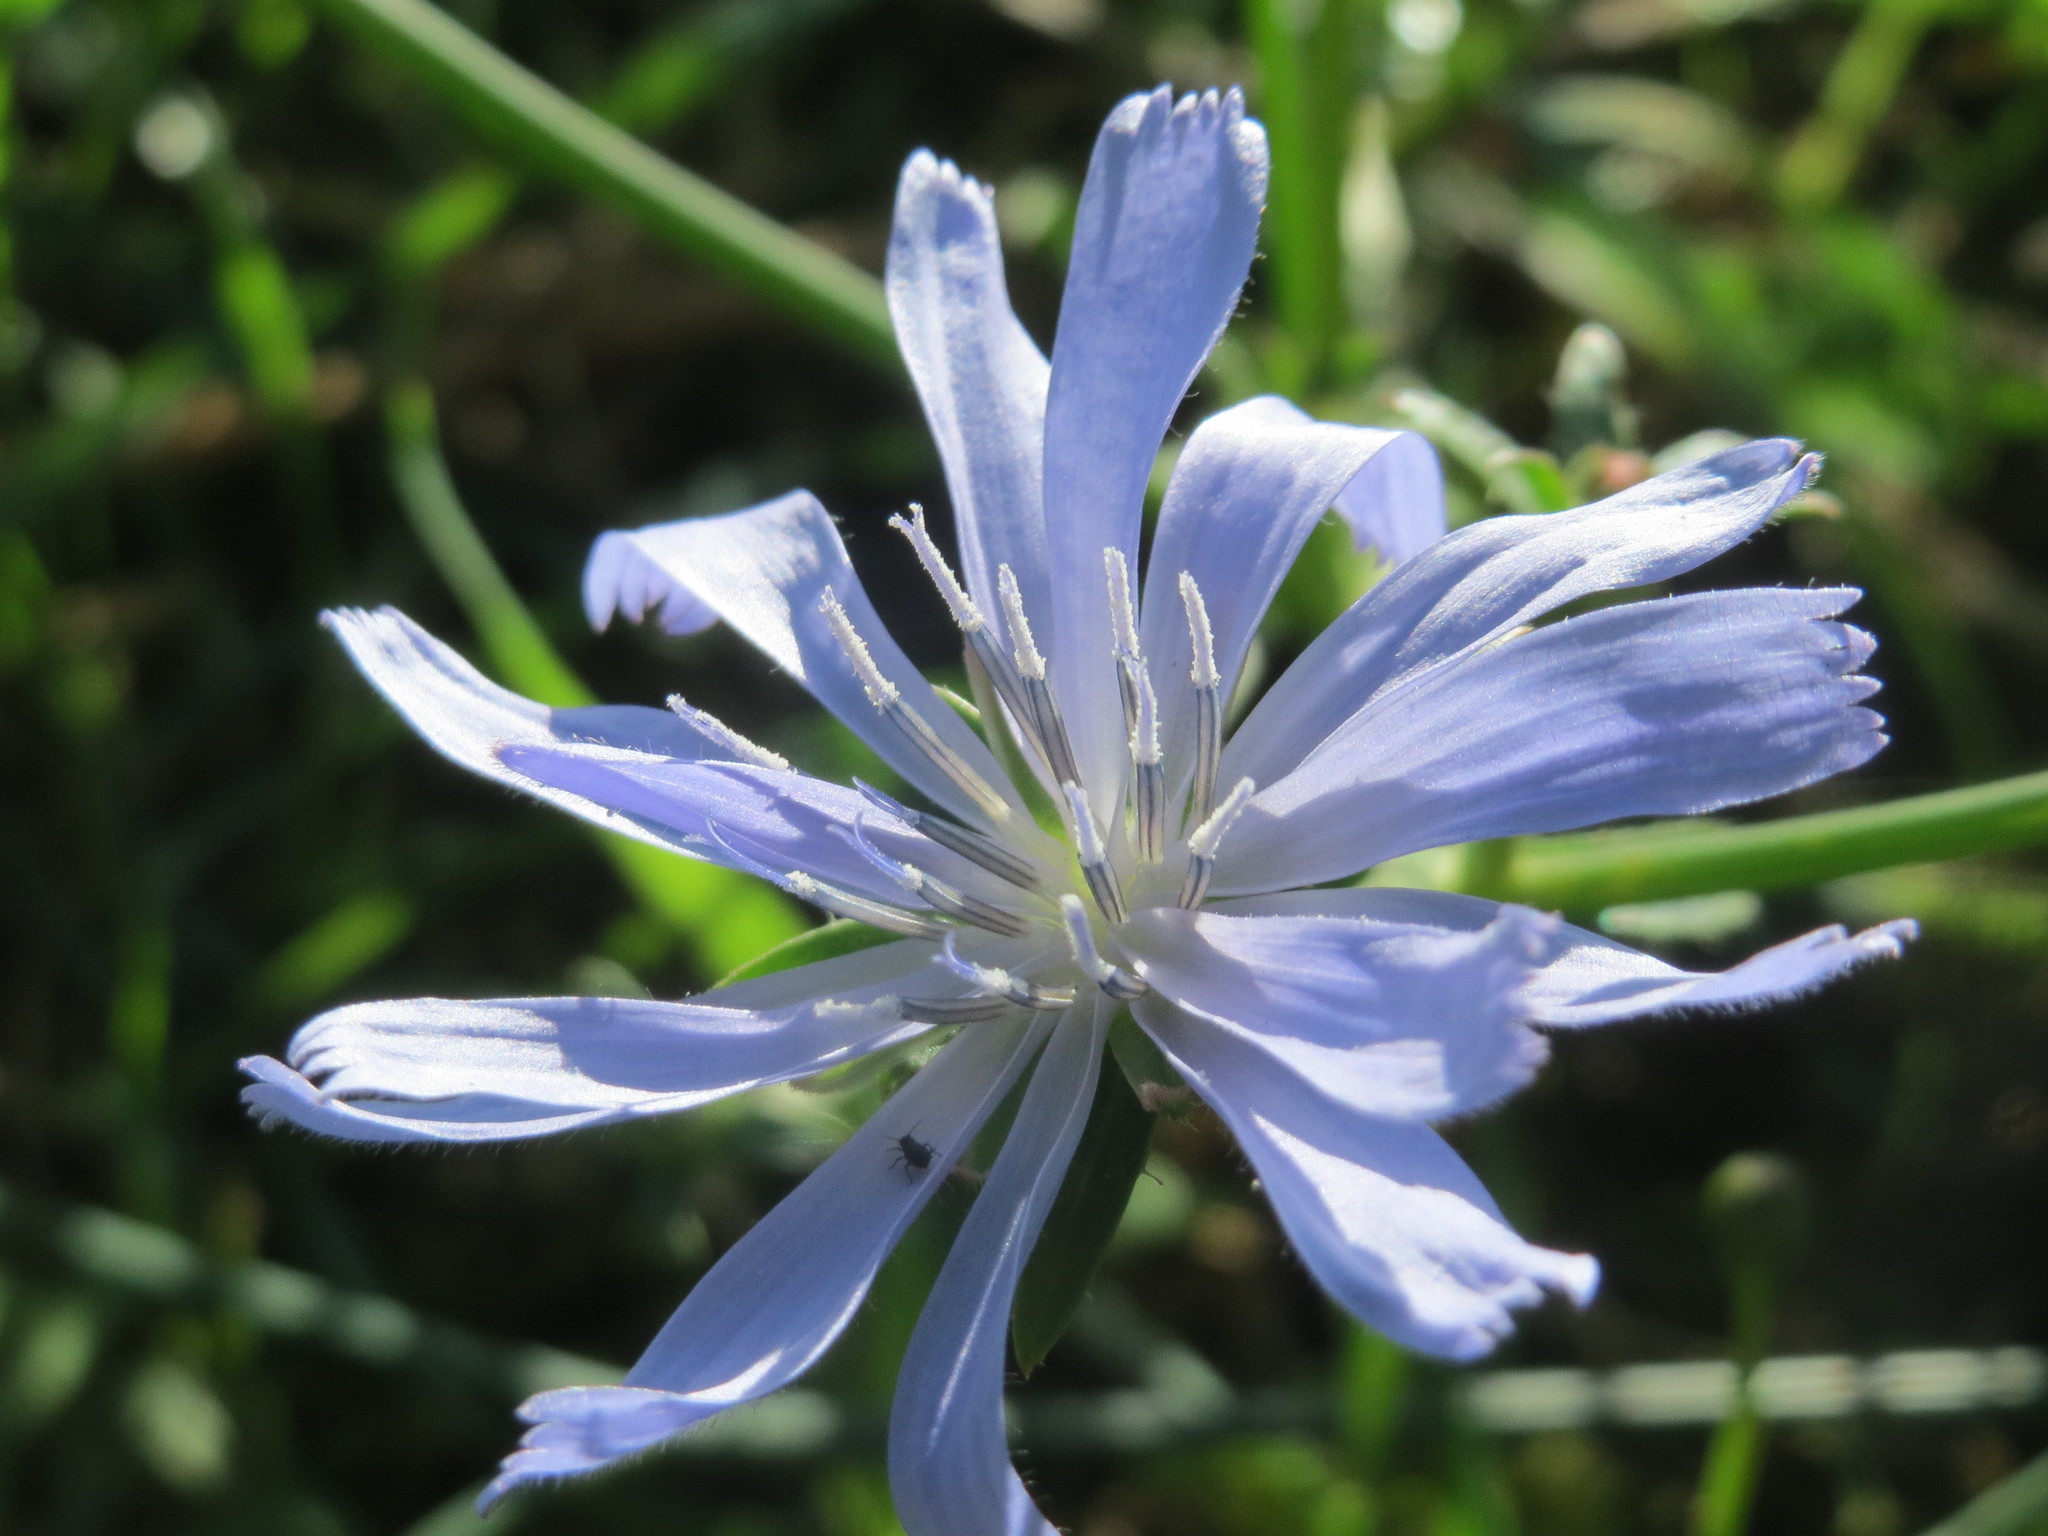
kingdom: Plantae
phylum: Tracheophyta
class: Magnoliopsida
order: Asterales
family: Asteraceae
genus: Cichorium
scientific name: Cichorium intybus
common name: Chicory
